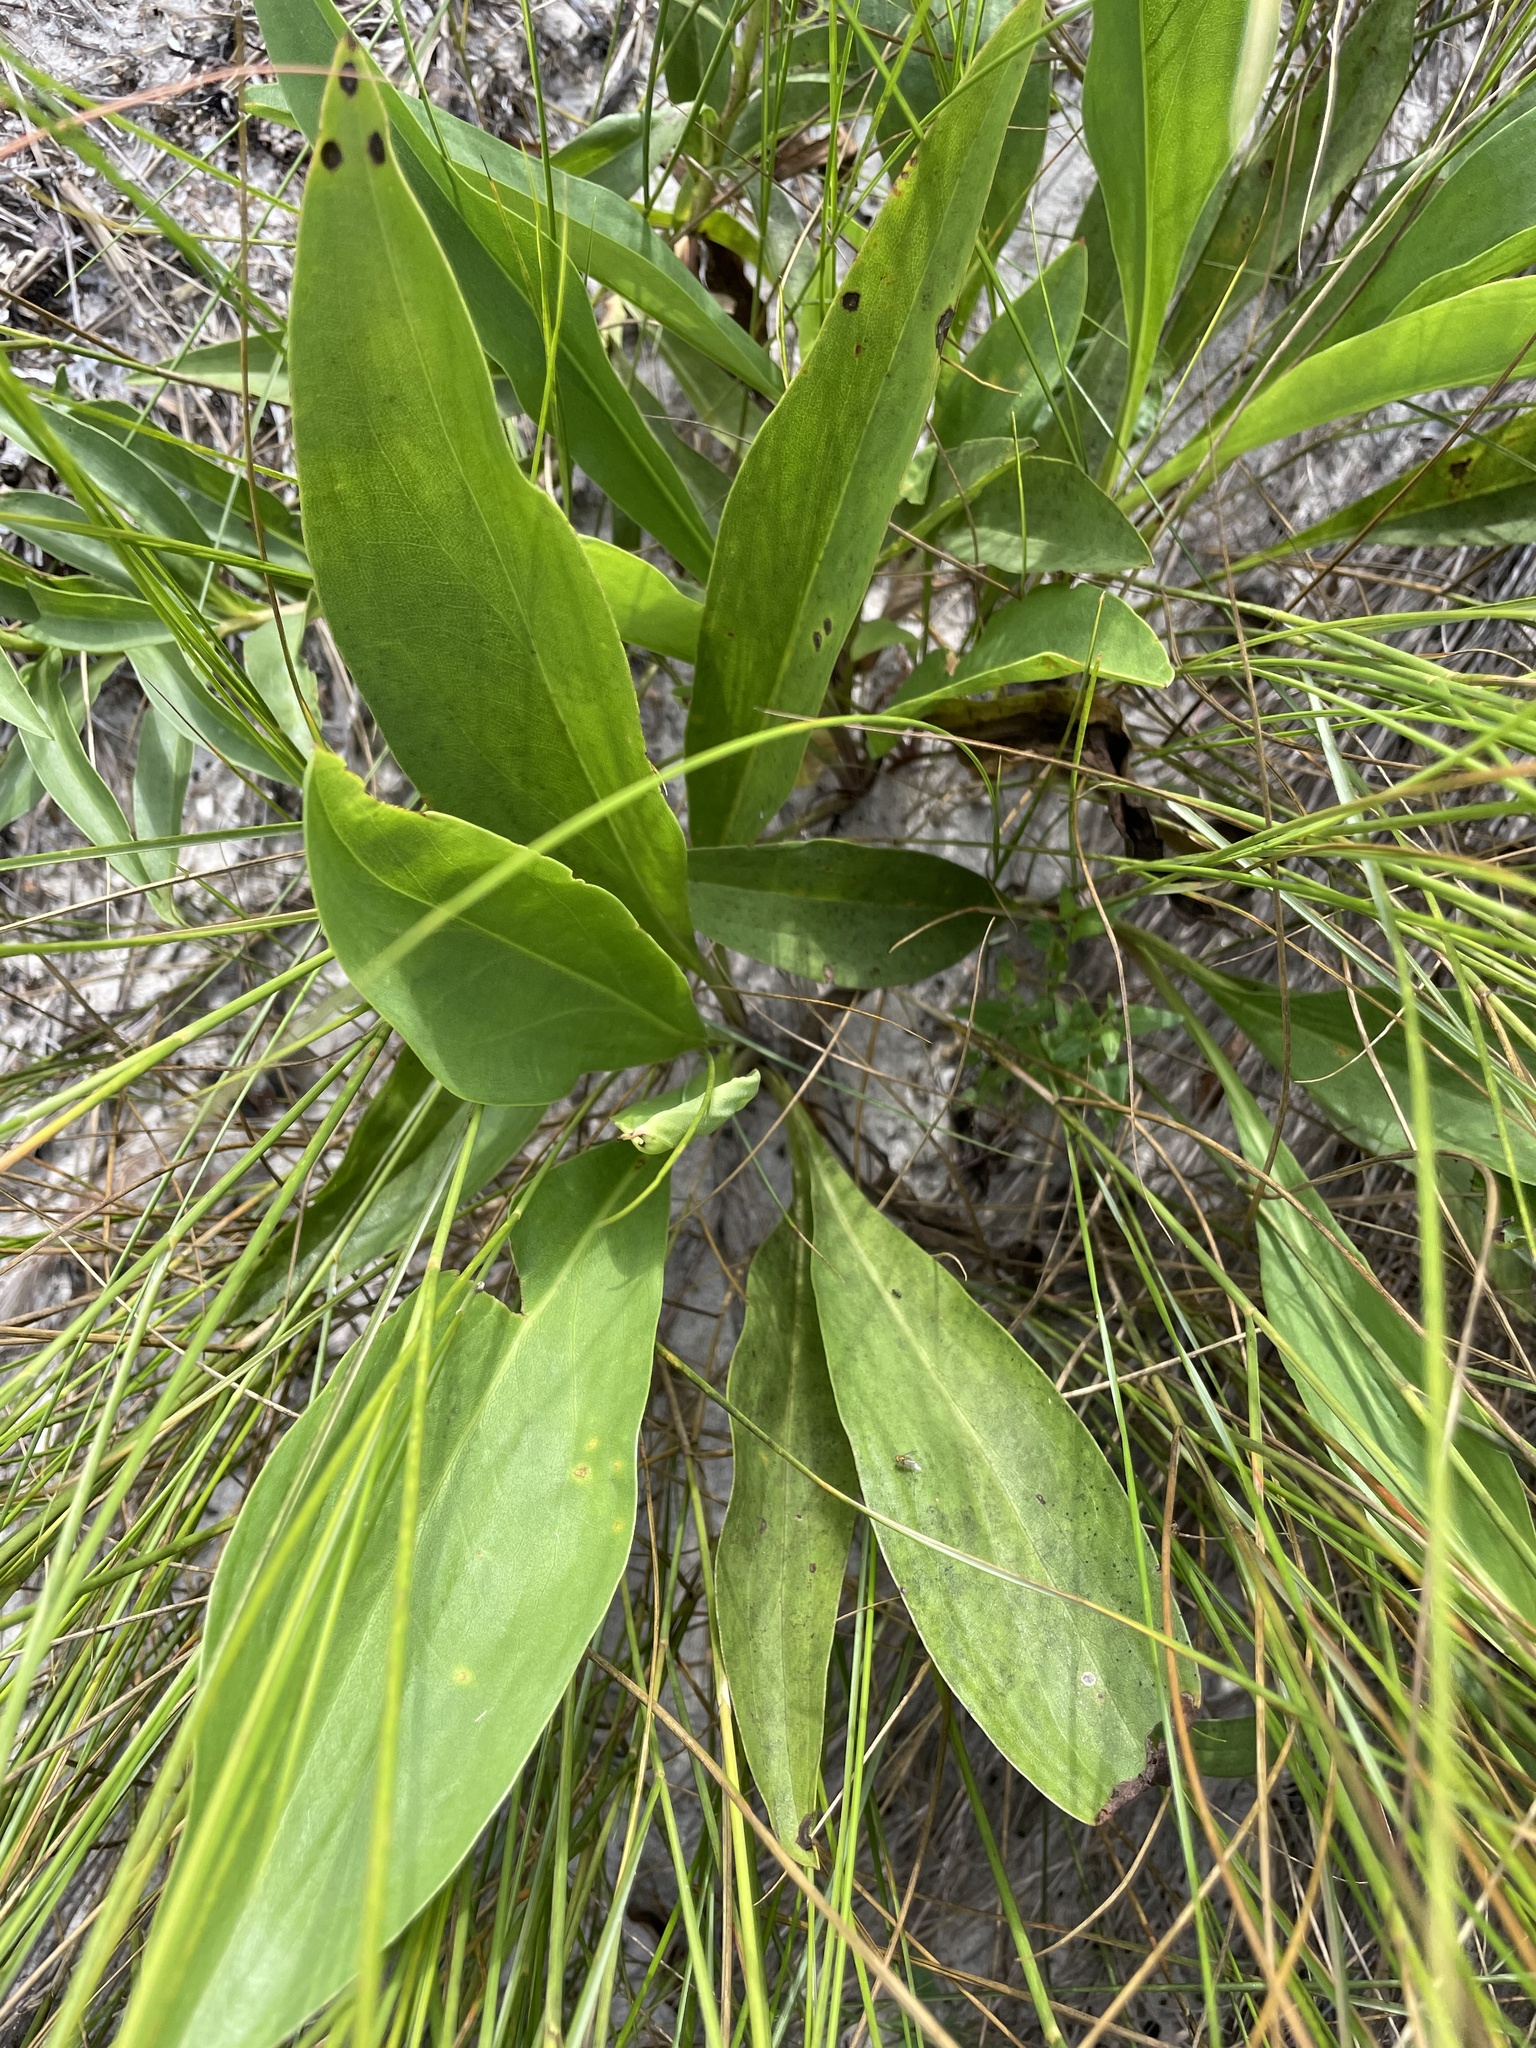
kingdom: Plantae
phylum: Tracheophyta
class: Magnoliopsida
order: Asterales
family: Asteraceae
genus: Solidago
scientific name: Solidago sempervirens
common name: Salt-marsh goldenrod
